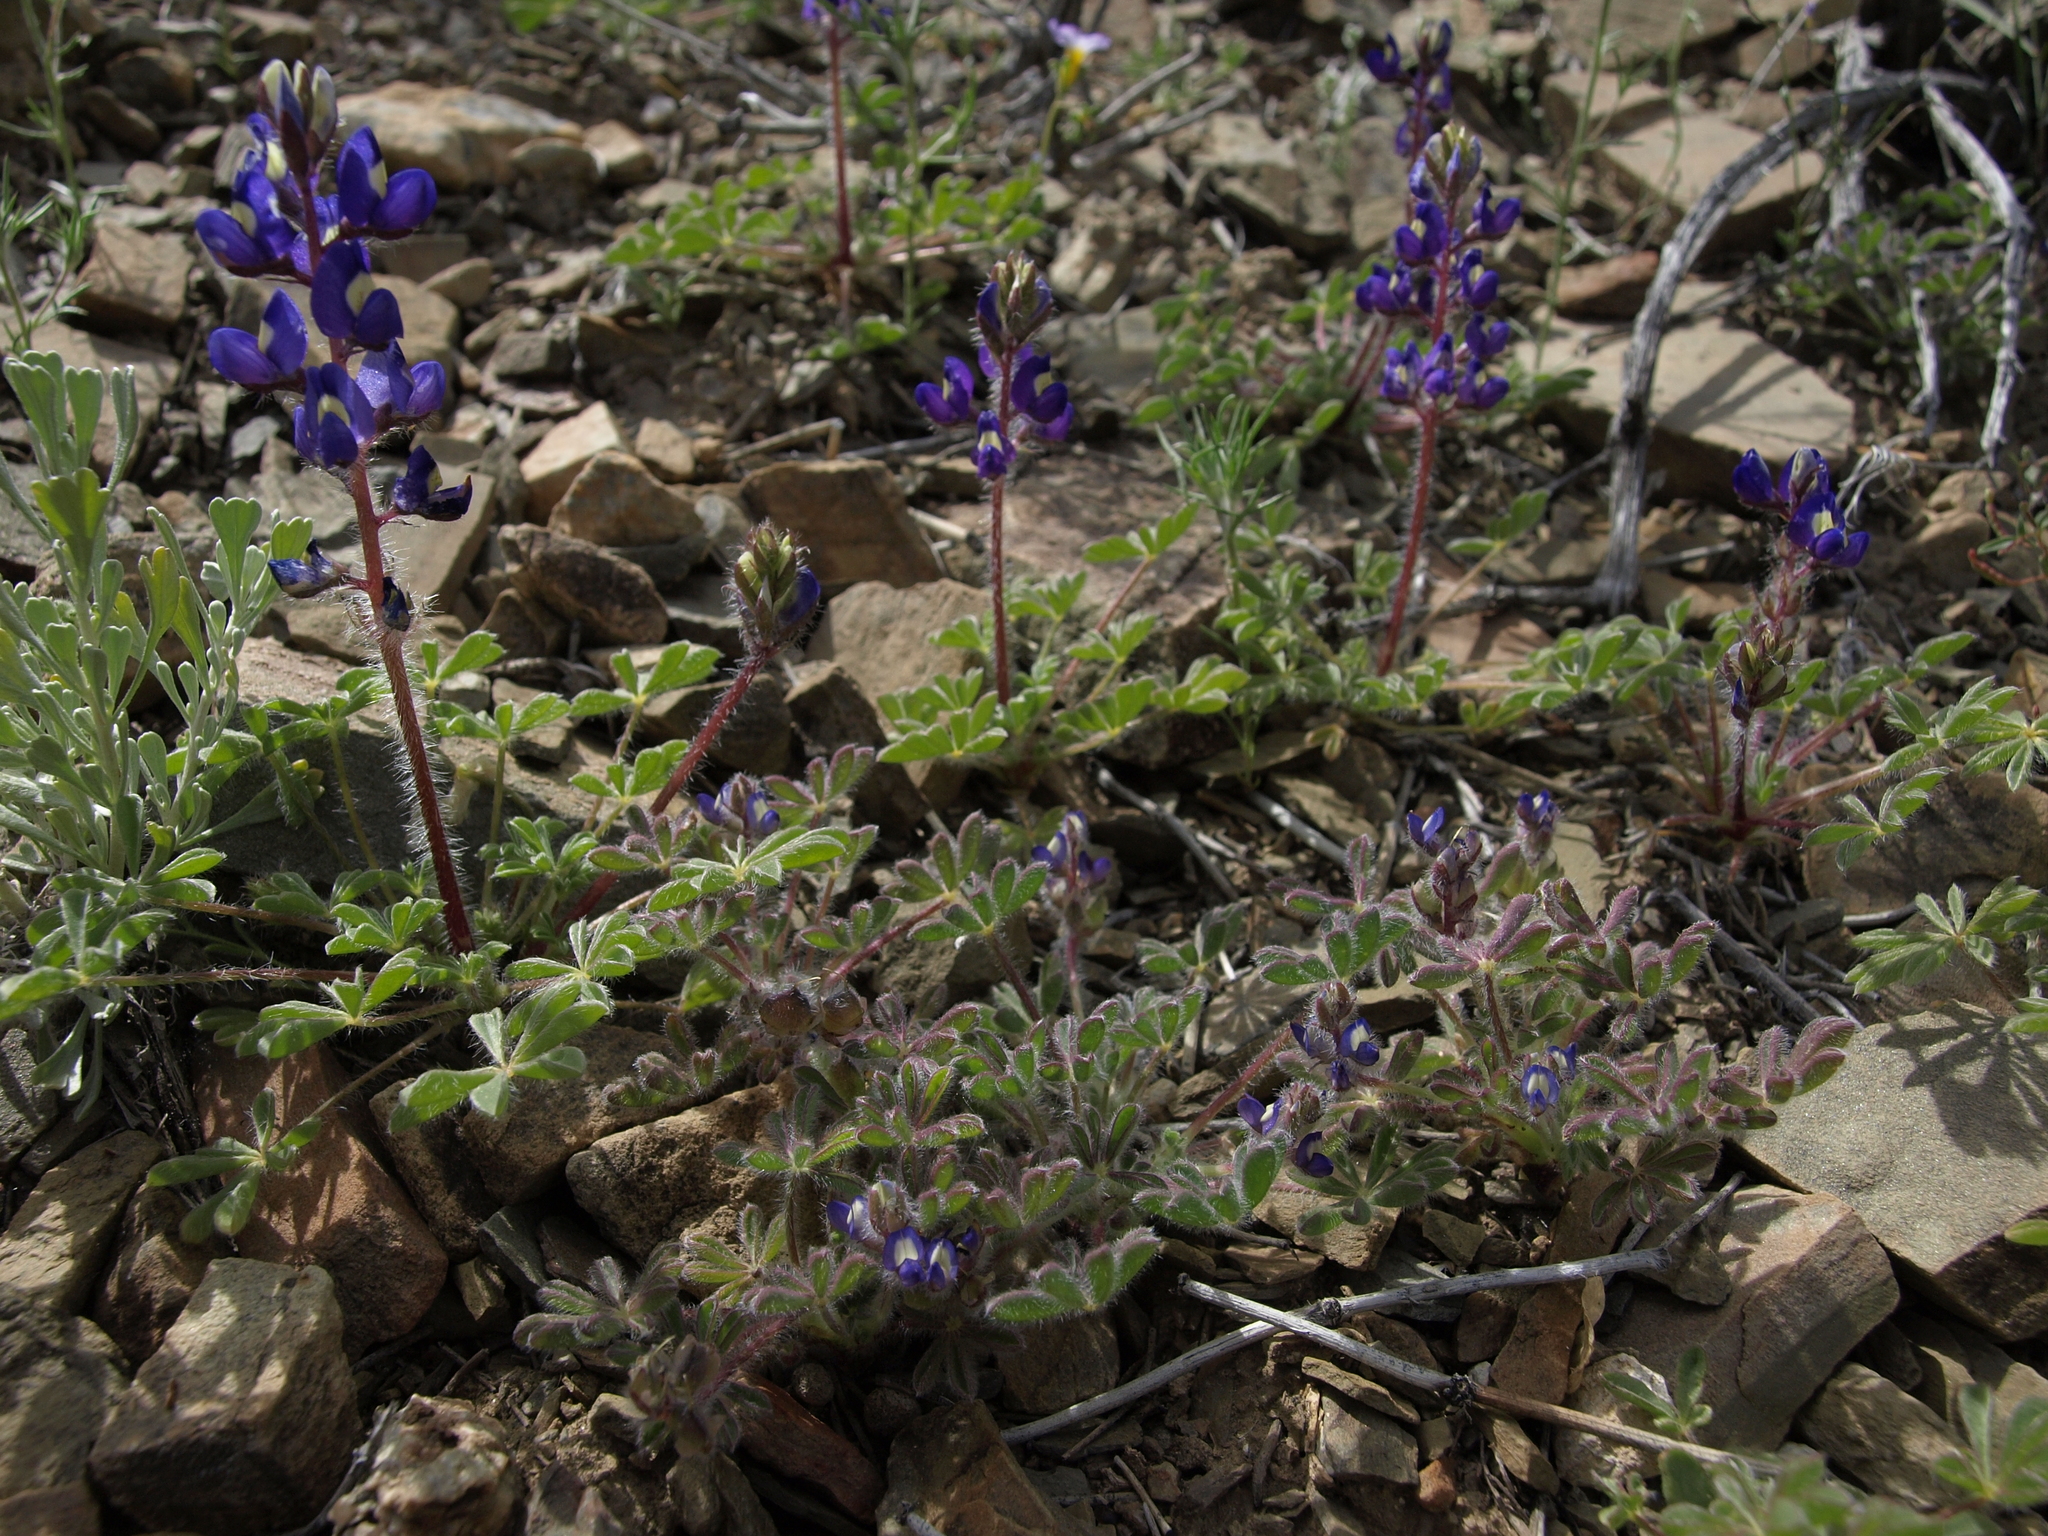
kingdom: Plantae
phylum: Tracheophyta
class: Magnoliopsida
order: Fabales
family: Fabaceae
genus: Lupinus
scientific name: Lupinus brevicaulis
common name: Sand lupine
